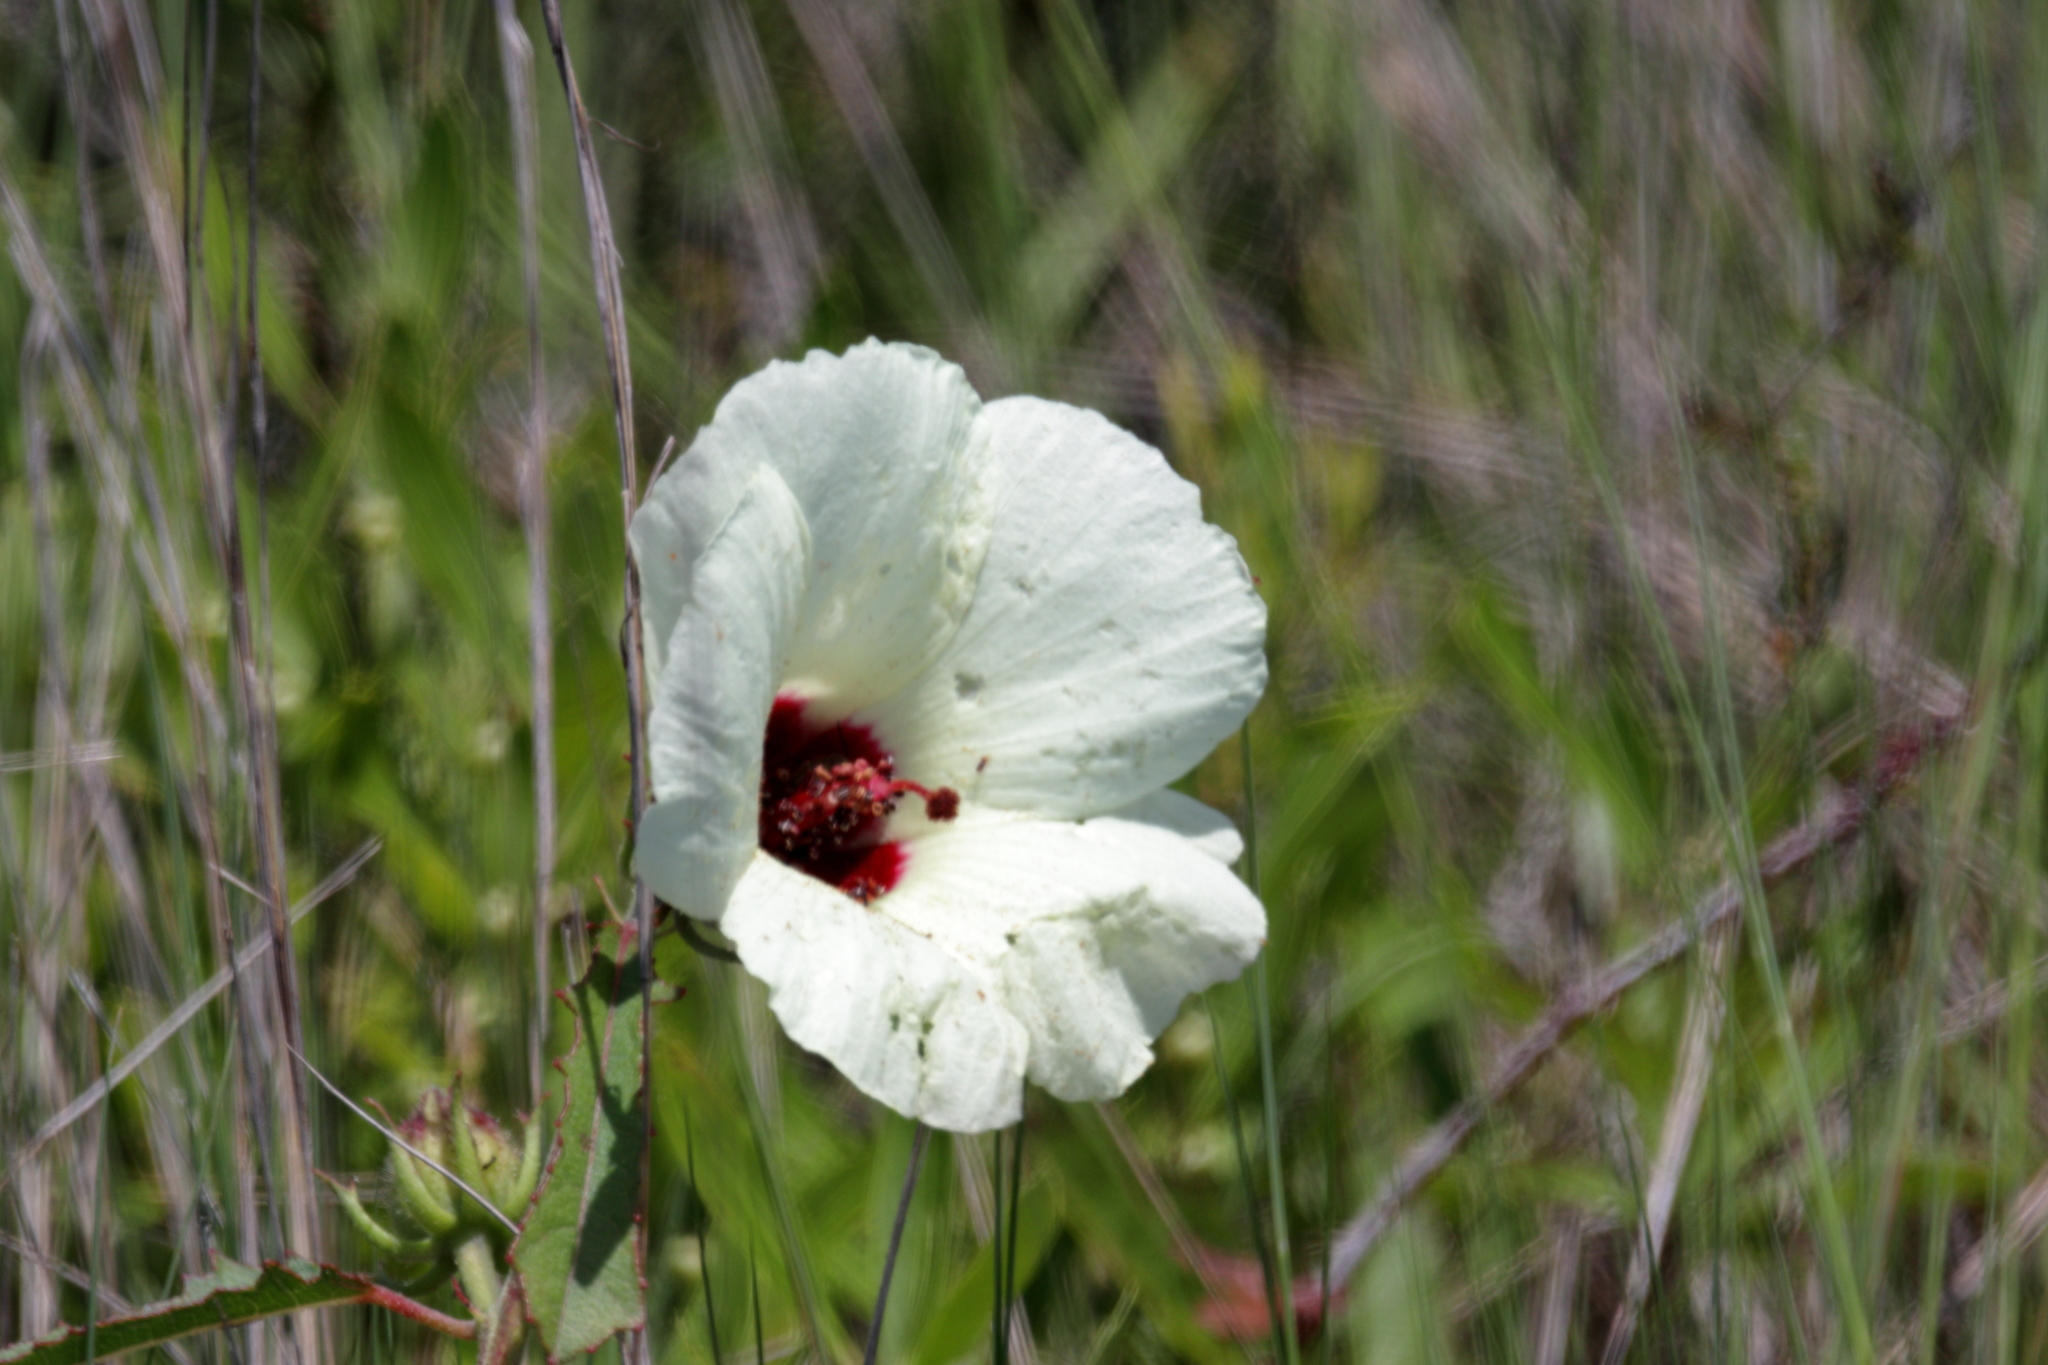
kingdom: Plantae
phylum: Tracheophyta
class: Magnoliopsida
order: Malvales
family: Malvaceae
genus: Hibiscus
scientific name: Hibiscus aculeatus
